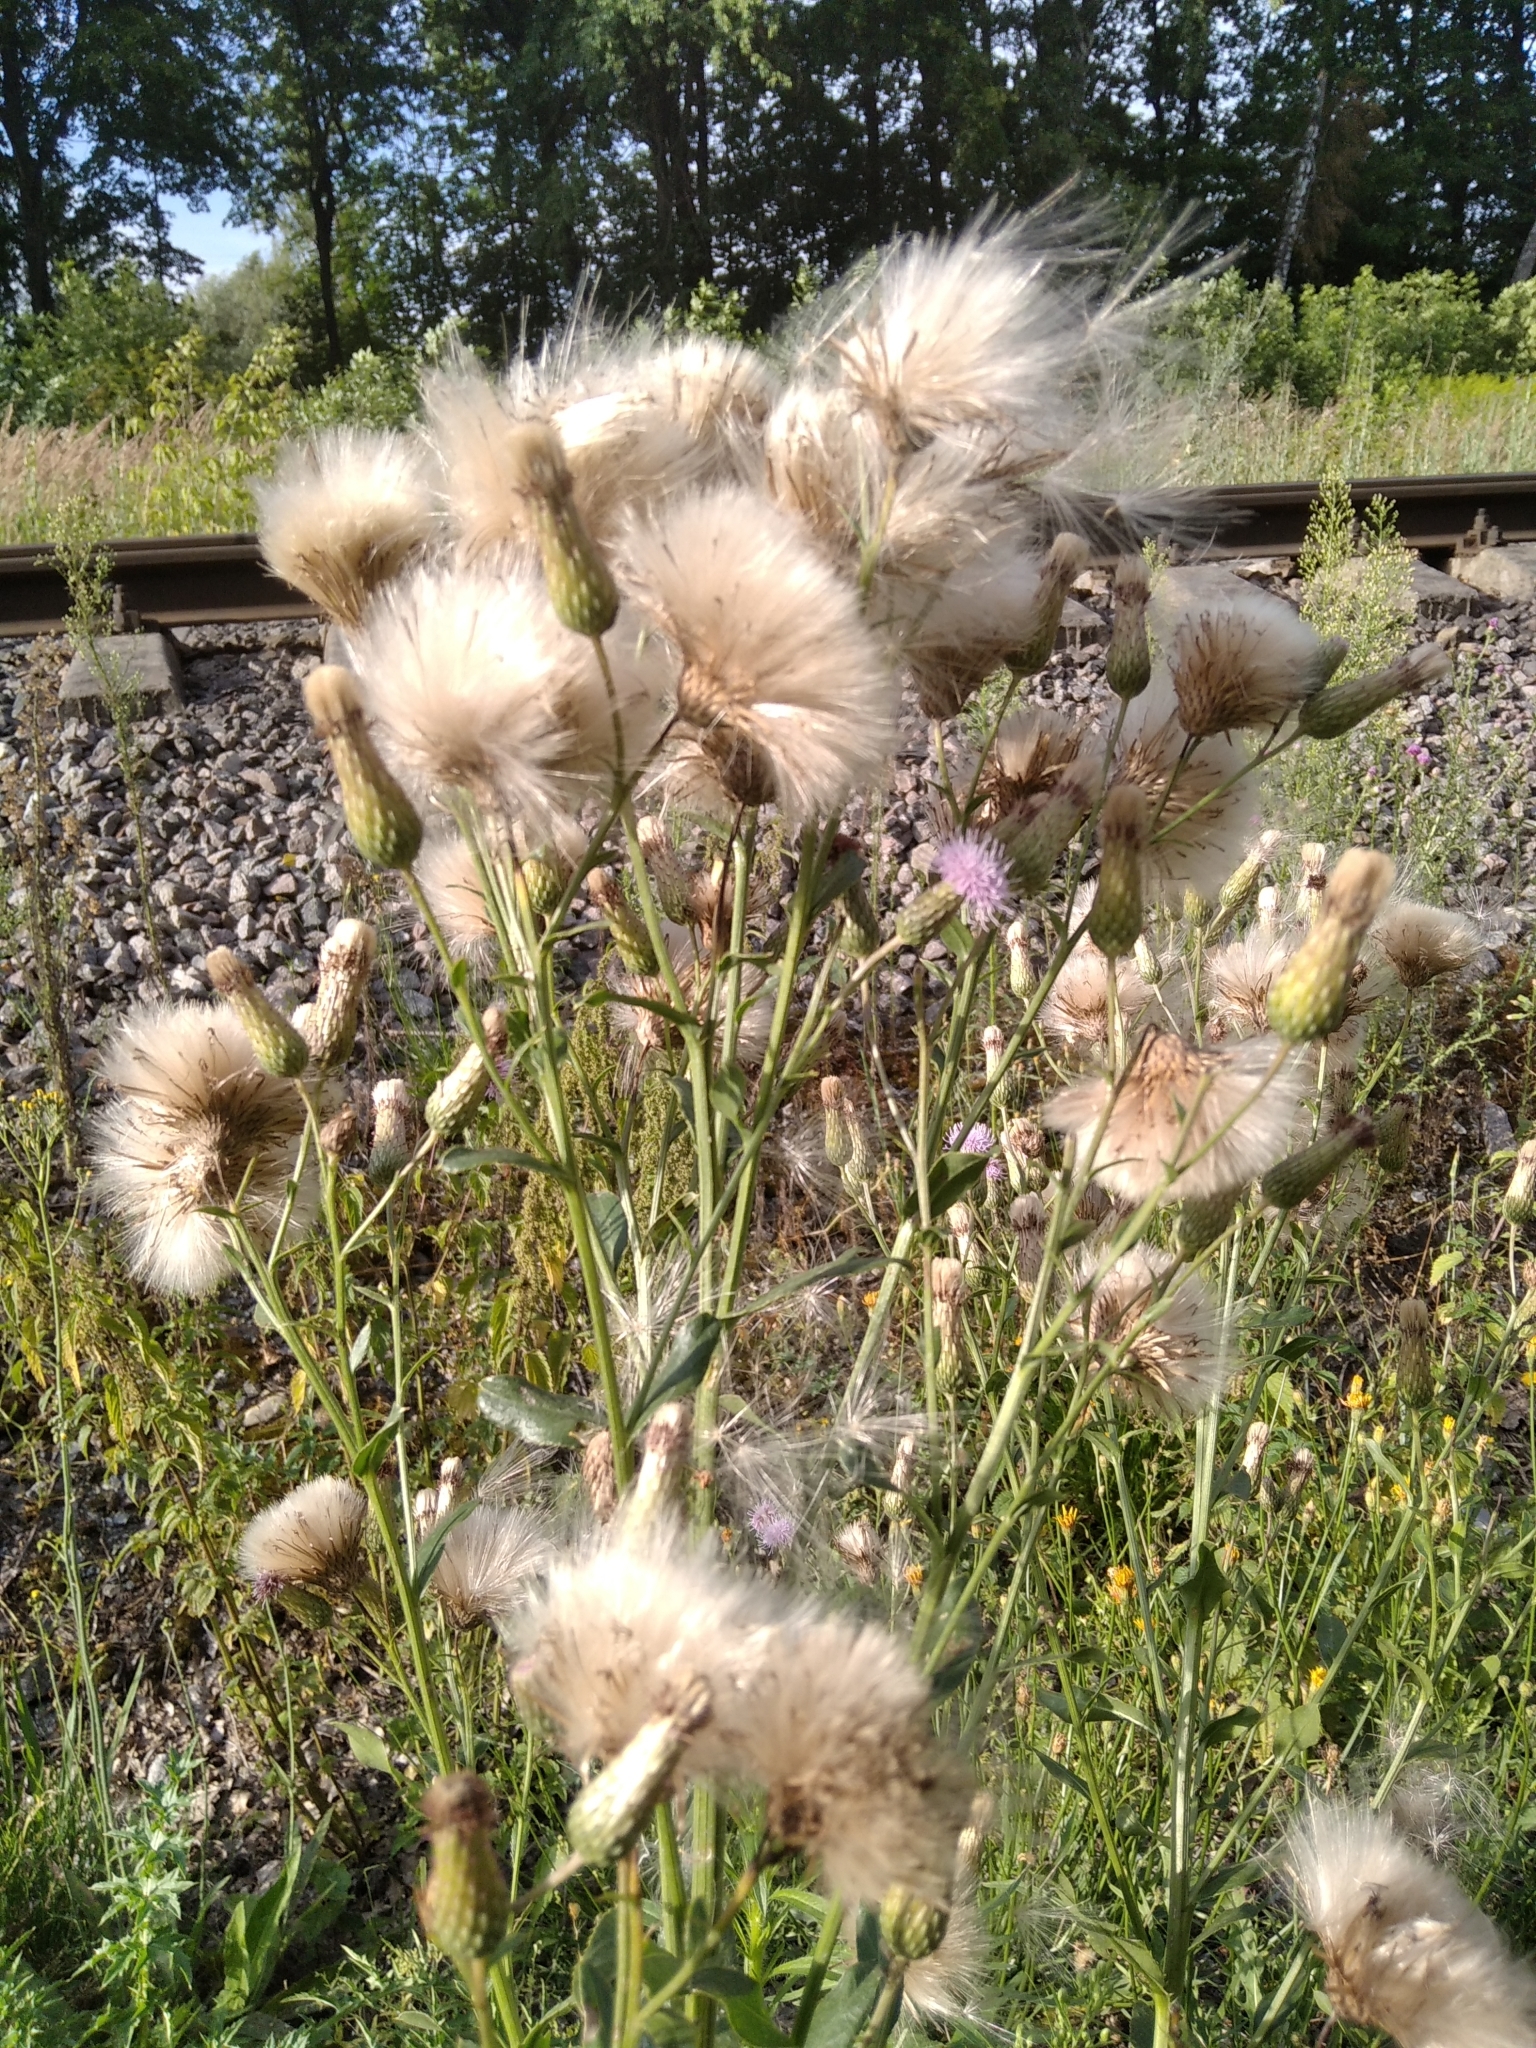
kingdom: Plantae
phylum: Tracheophyta
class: Magnoliopsida
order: Asterales
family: Asteraceae
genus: Cirsium
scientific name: Cirsium arvense
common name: Creeping thistle
